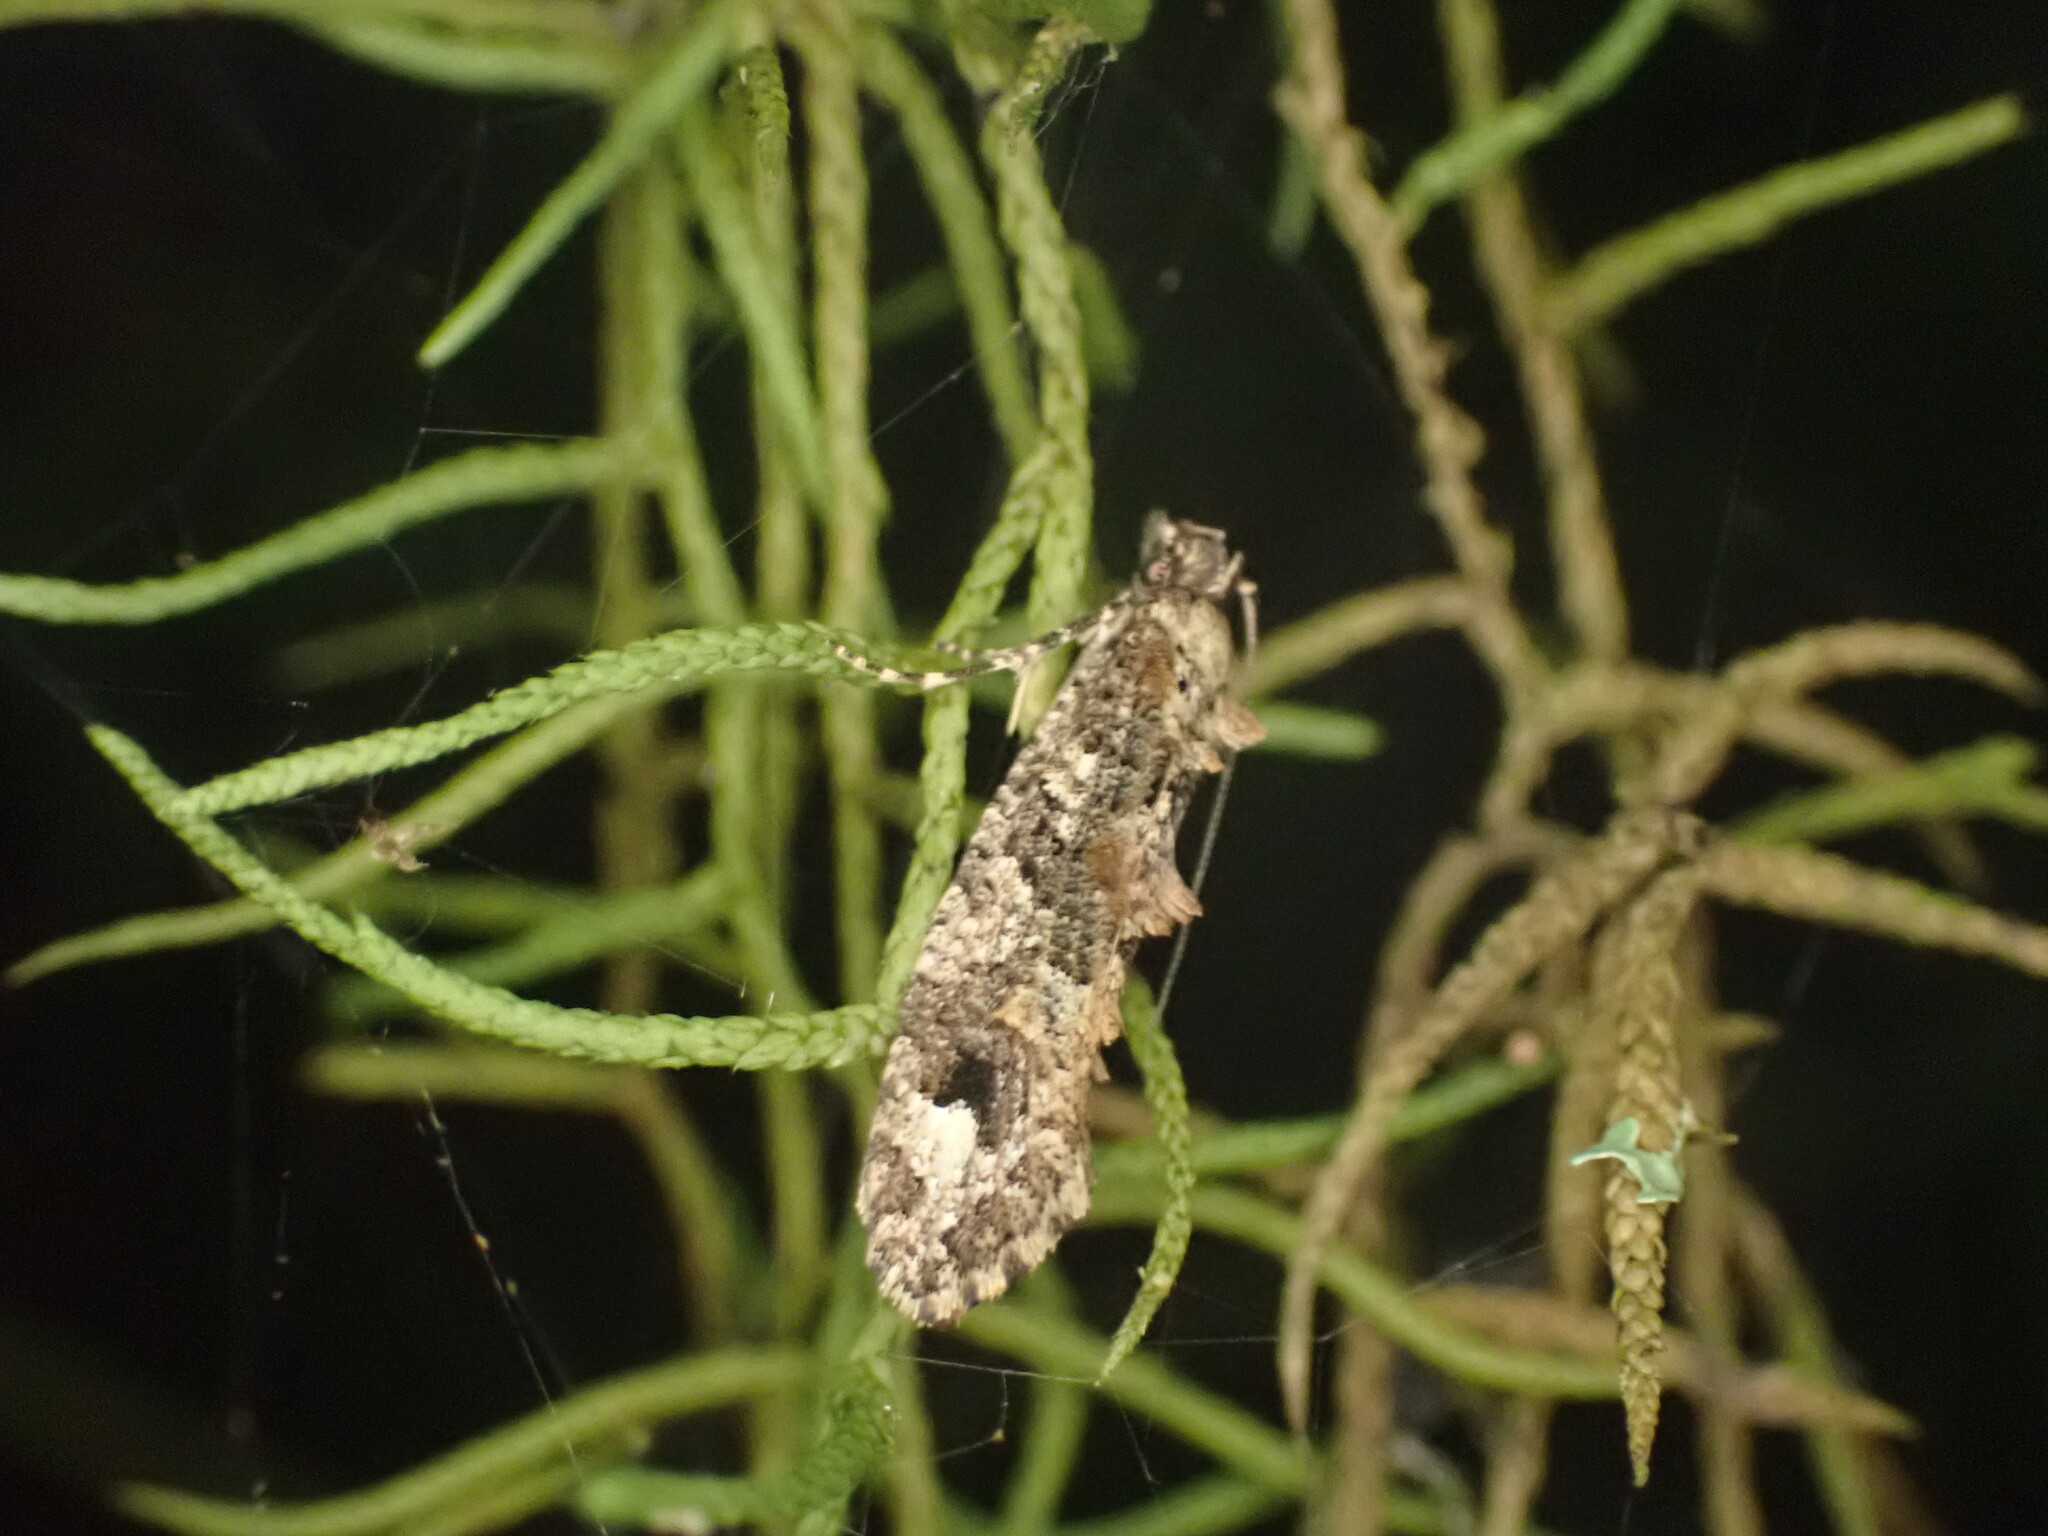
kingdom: Animalia
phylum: Arthropoda
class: Insecta
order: Lepidoptera
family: Tineidae
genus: Lysiphragma
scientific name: Lysiphragma epixyla
